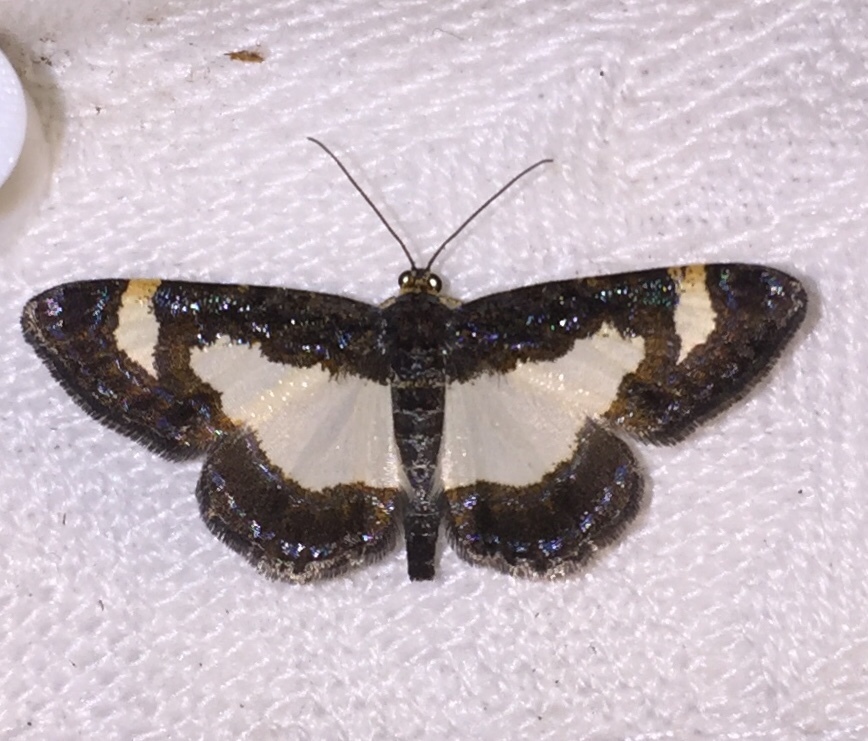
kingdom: Animalia
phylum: Arthropoda
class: Insecta
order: Lepidoptera
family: Geometridae
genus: Heliomata
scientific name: Heliomata cycladata
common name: Common spring moth
